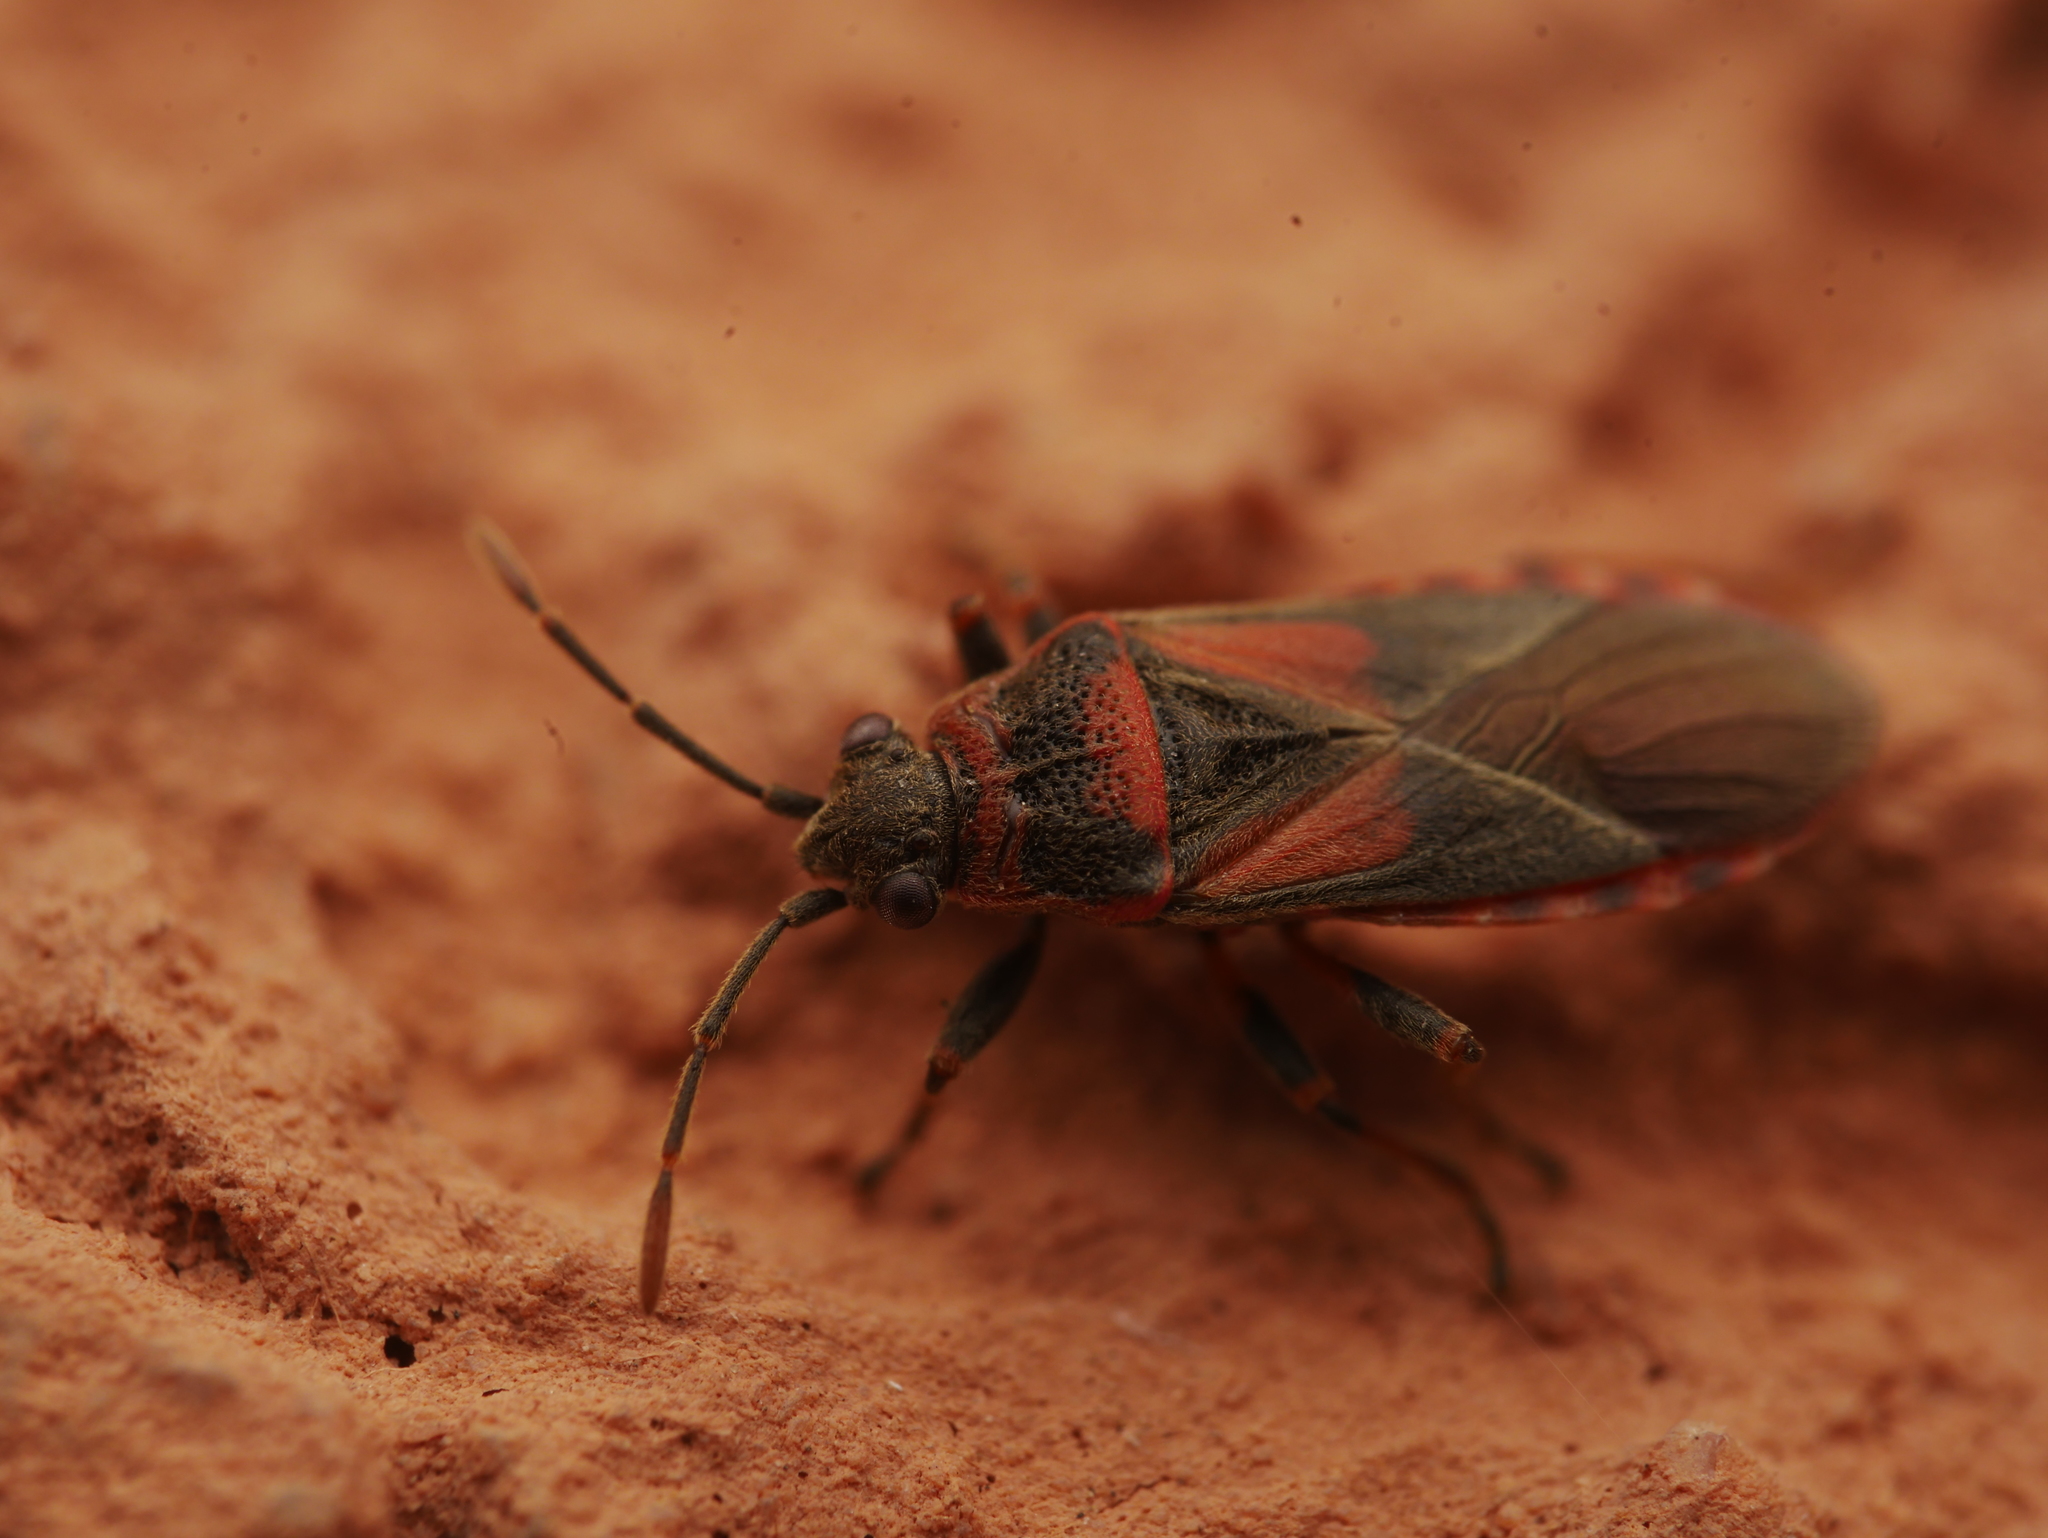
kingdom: Animalia
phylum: Arthropoda
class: Insecta
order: Hemiptera
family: Lygaeidae
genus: Arocatus
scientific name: Arocatus melanocephalus
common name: Lygaeid bug
